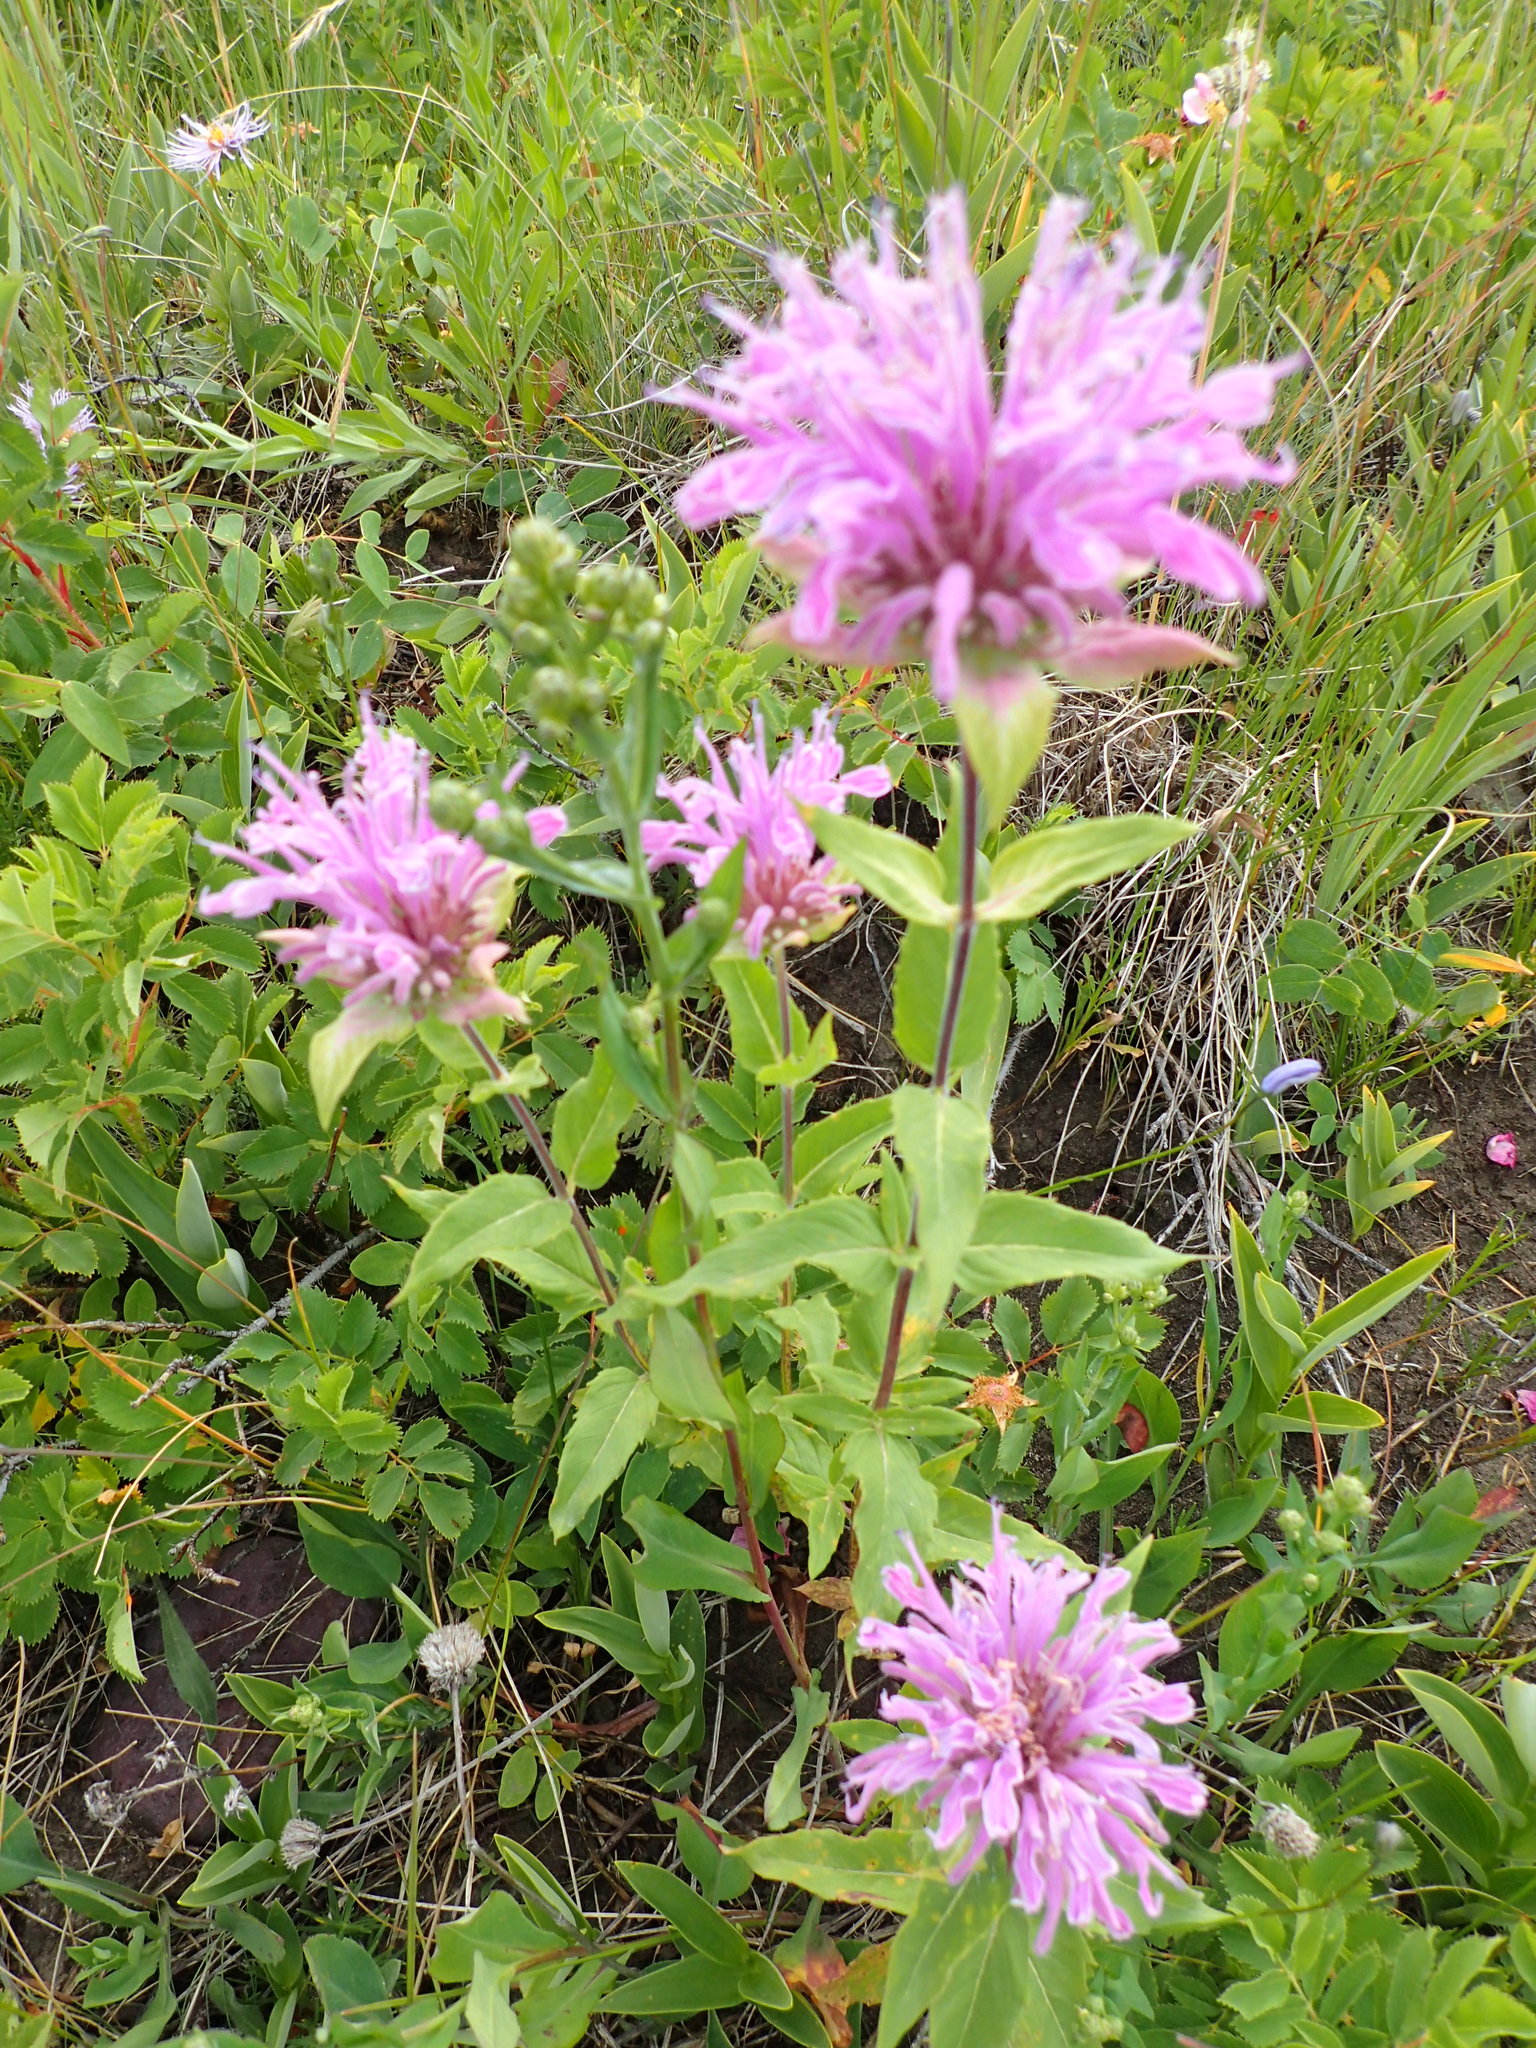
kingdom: Plantae
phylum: Tracheophyta
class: Magnoliopsida
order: Lamiales
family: Lamiaceae
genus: Monarda
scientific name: Monarda fistulosa
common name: Purple beebalm
